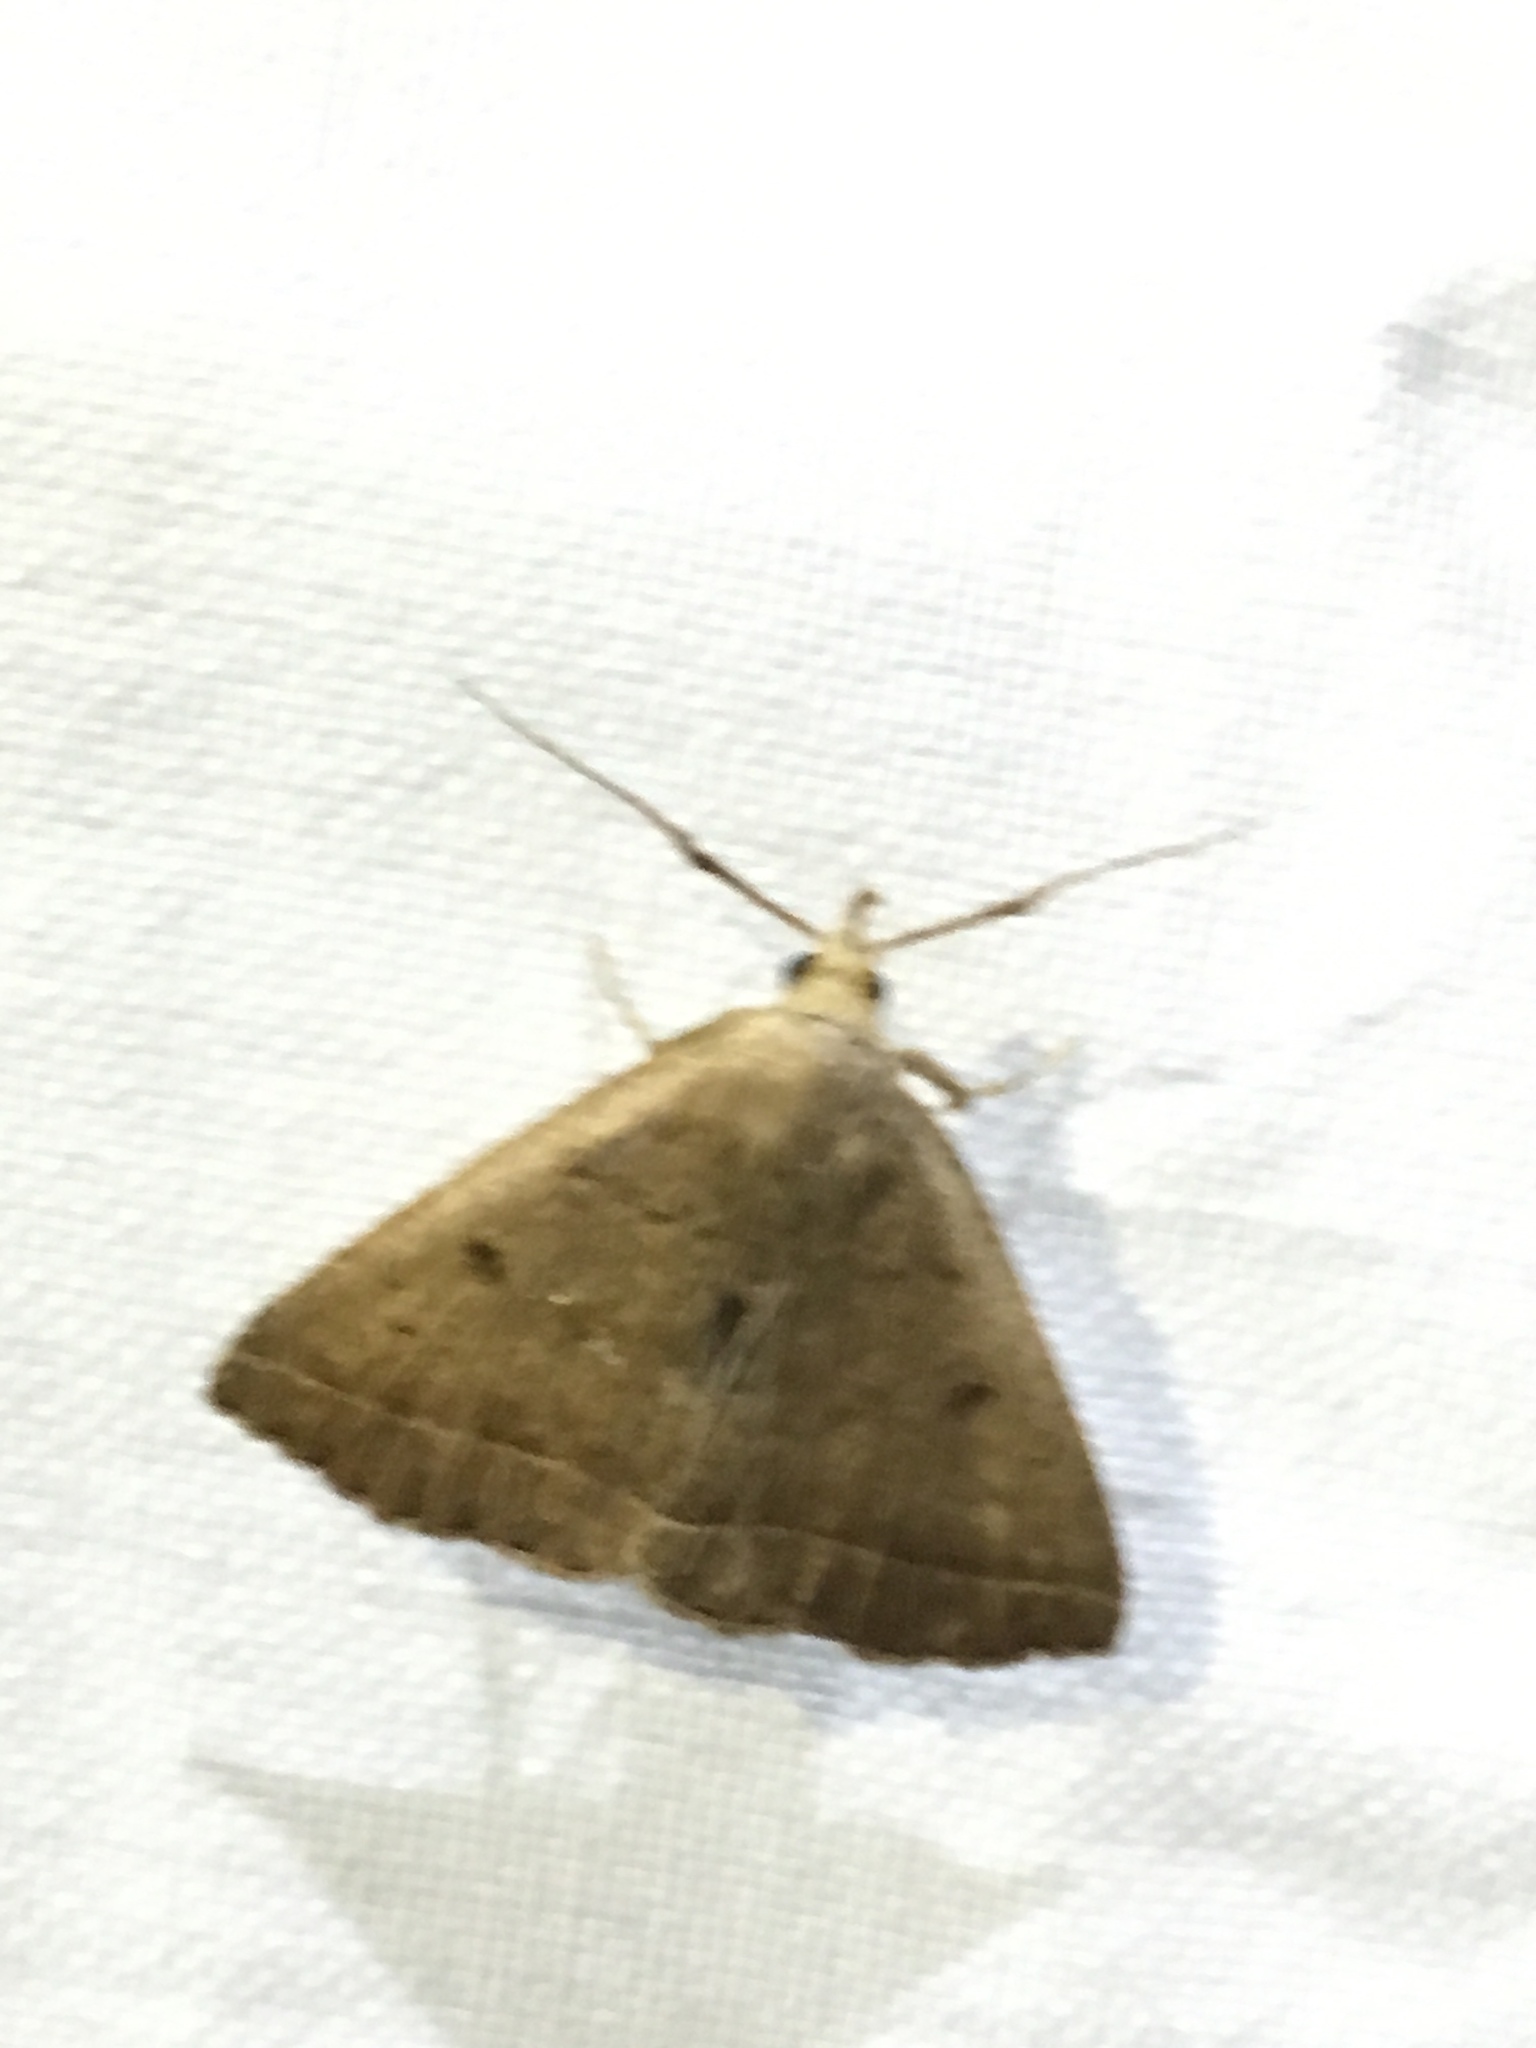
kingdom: Animalia
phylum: Arthropoda
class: Insecta
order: Lepidoptera
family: Erebidae
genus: Zanclognatha
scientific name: Zanclognatha jacchusalis
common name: Yellowish zanclognatha
